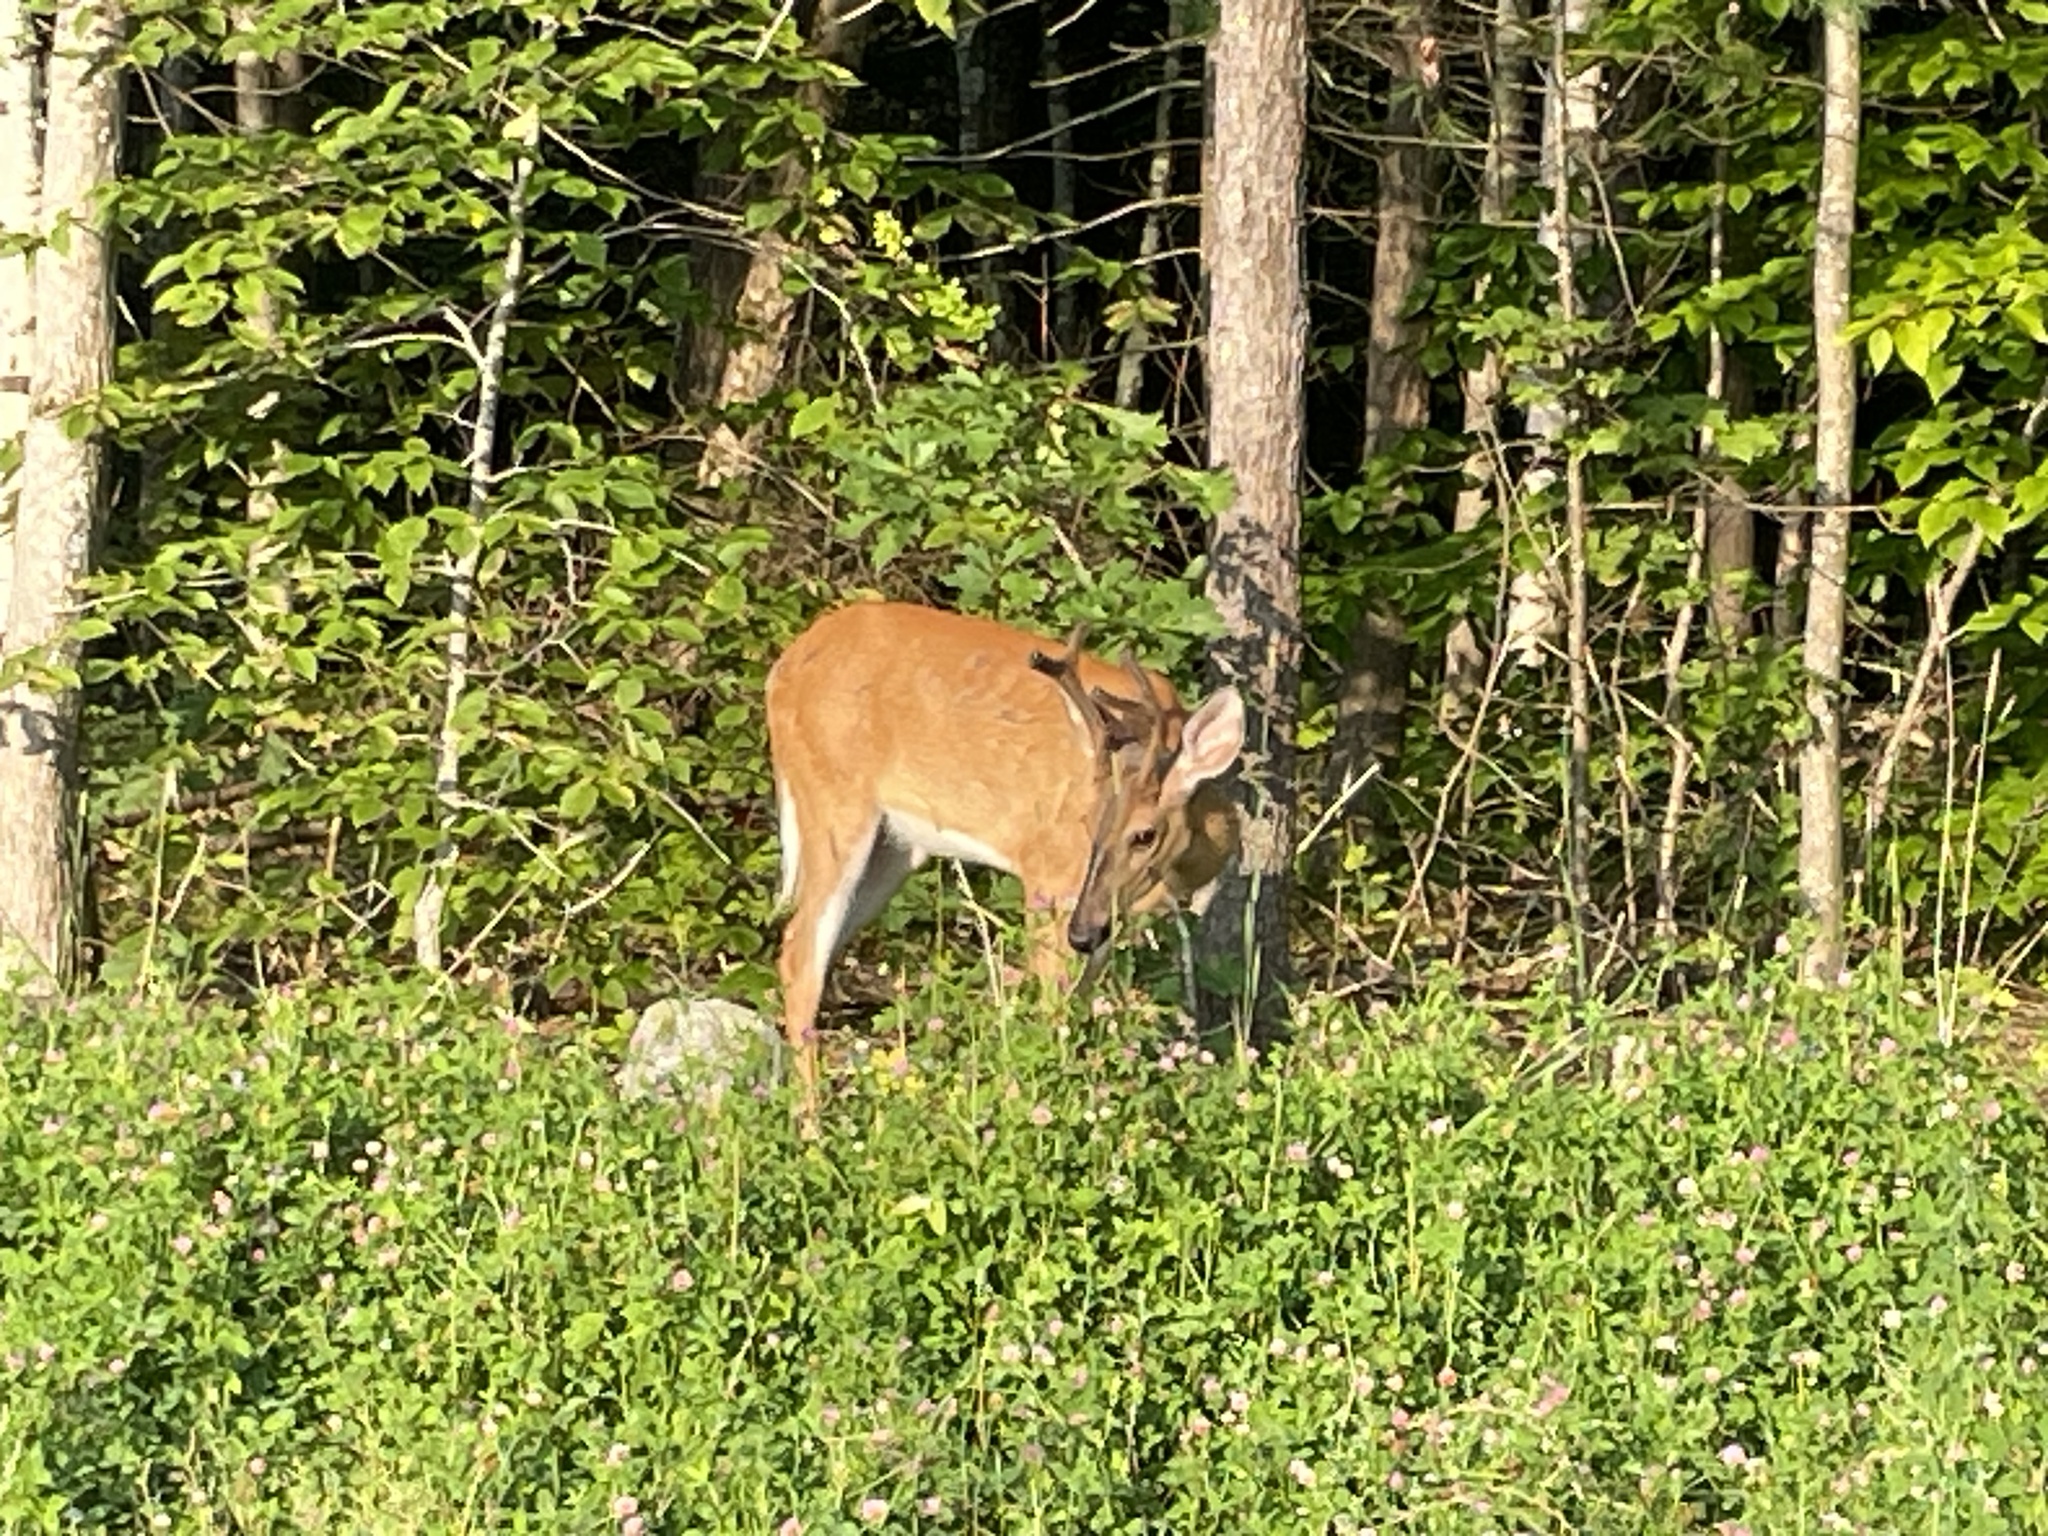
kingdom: Animalia
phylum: Chordata
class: Mammalia
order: Artiodactyla
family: Cervidae
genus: Odocoileus
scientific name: Odocoileus virginianus
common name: White-tailed deer
